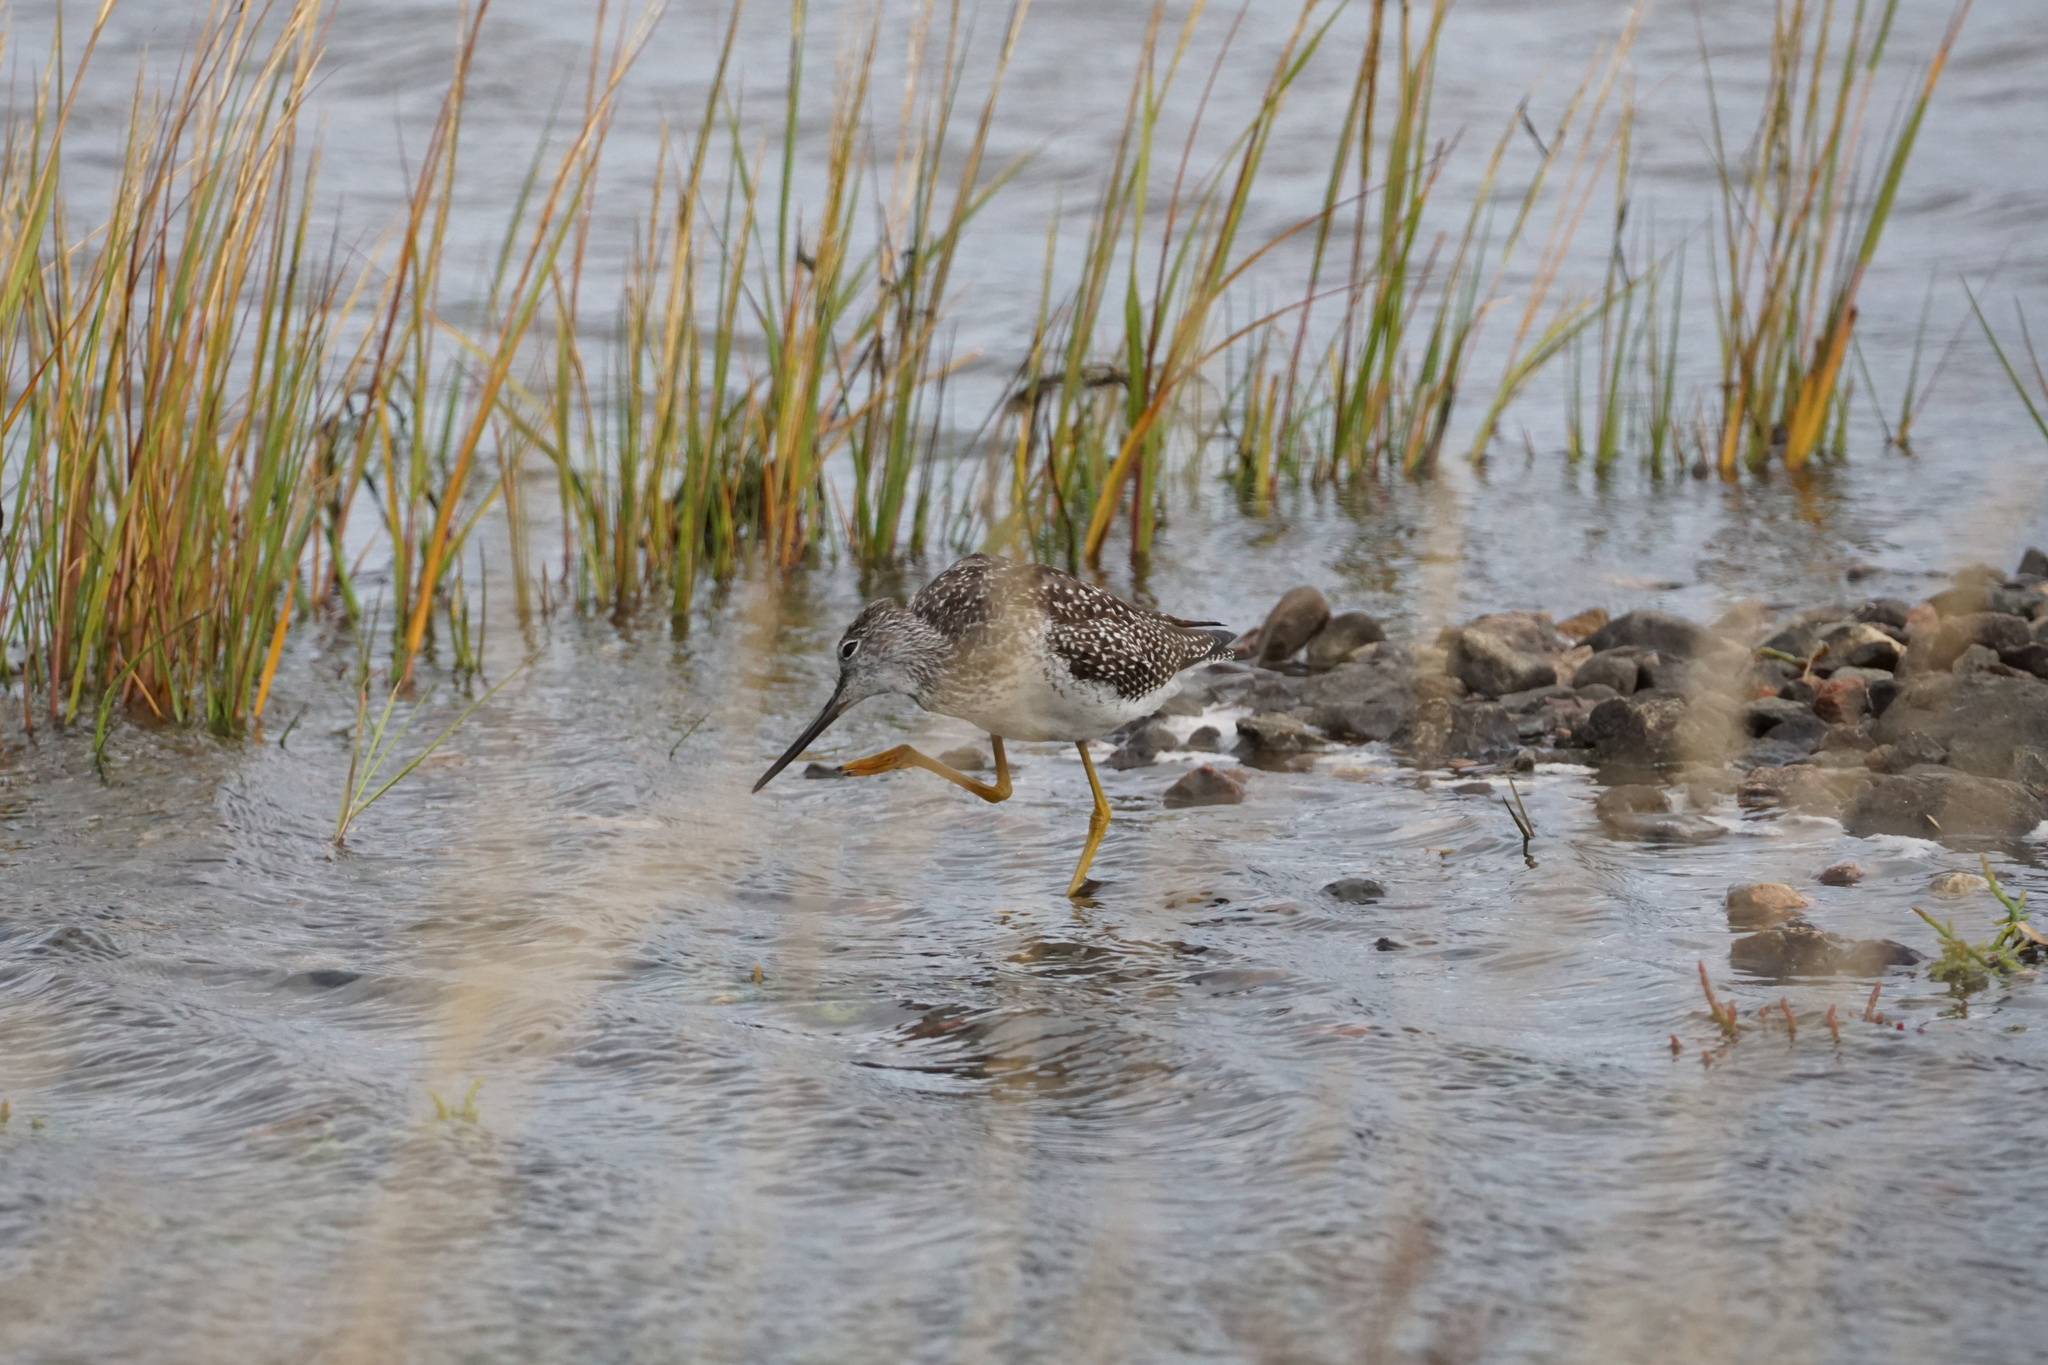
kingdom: Animalia
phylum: Chordata
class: Aves
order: Charadriiformes
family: Scolopacidae
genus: Tringa
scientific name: Tringa melanoleuca
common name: Greater yellowlegs
